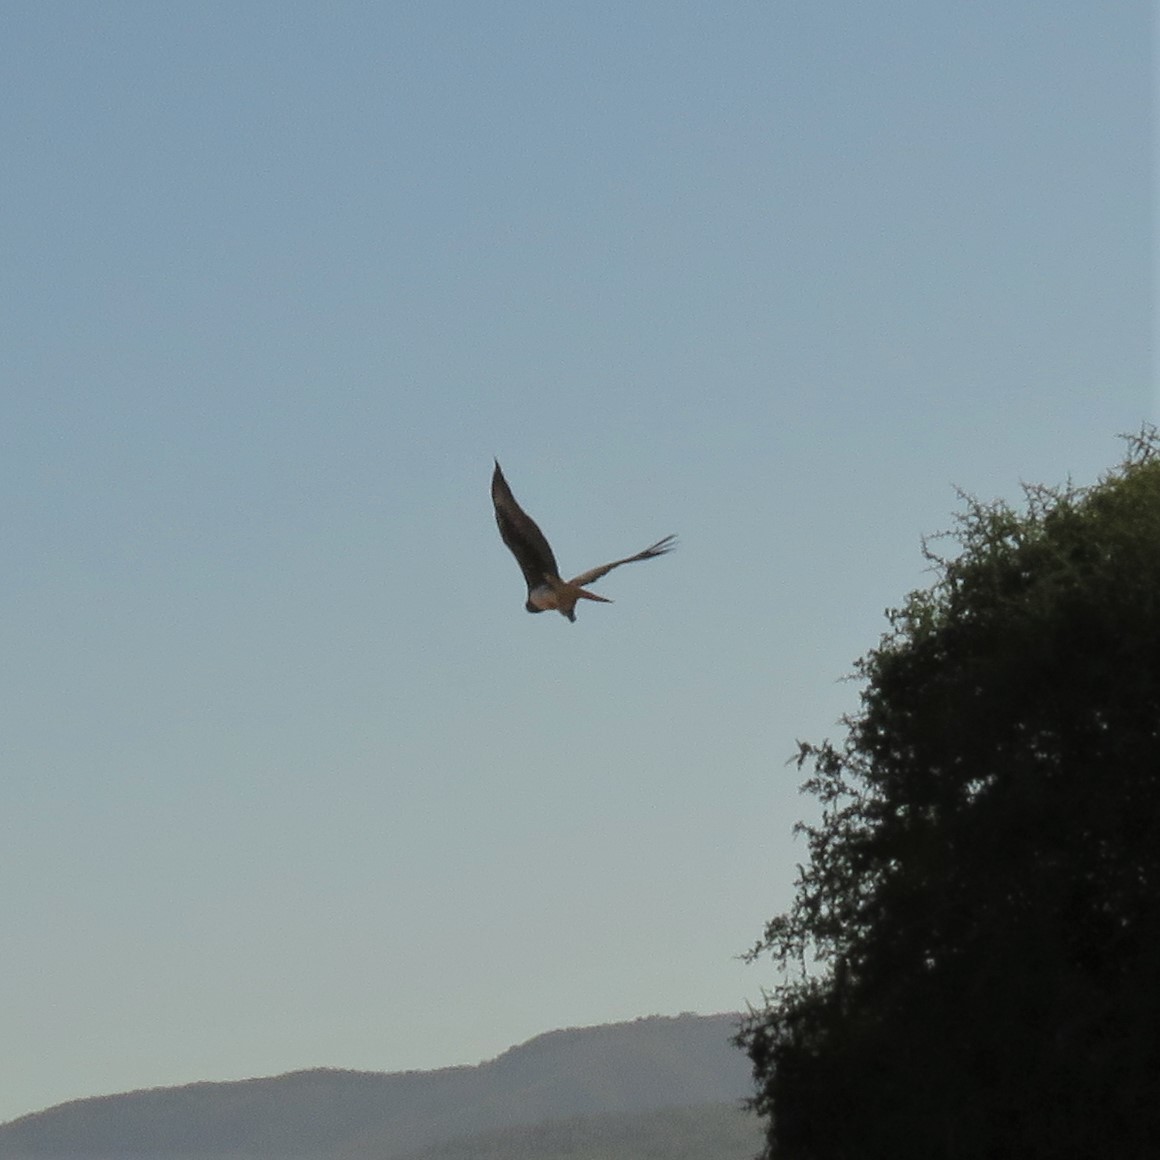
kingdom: Animalia
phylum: Chordata
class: Aves
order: Accipitriformes
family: Accipitridae
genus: Polemaetus
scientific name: Polemaetus bellicosus
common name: Martial eagle
